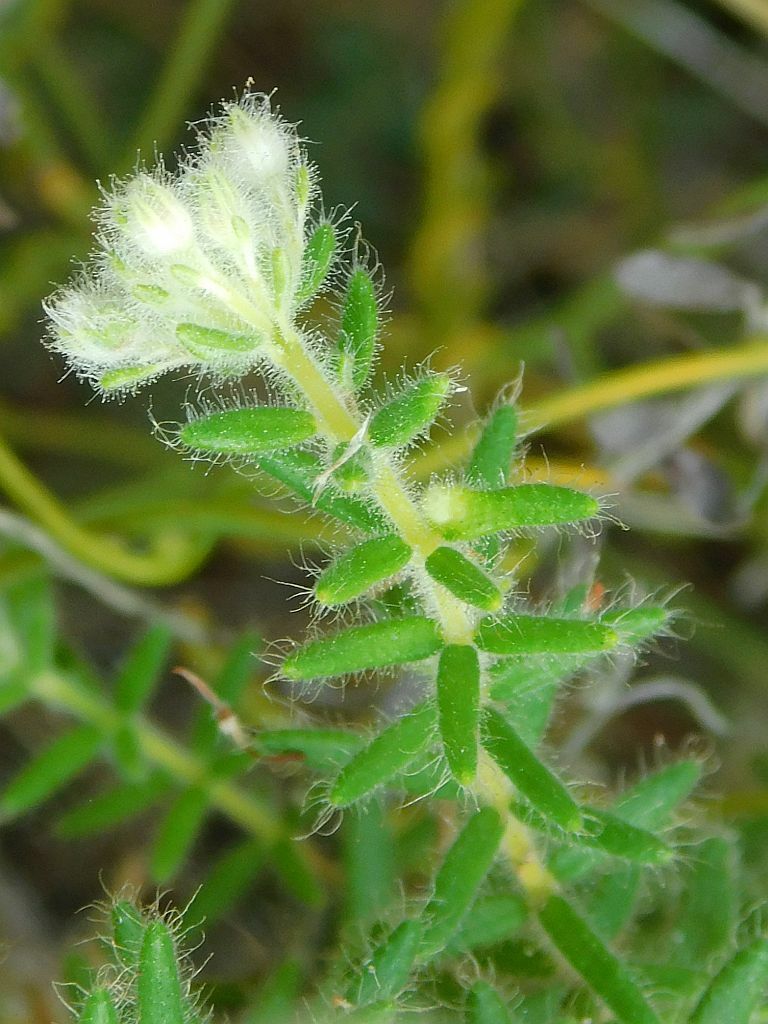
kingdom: Plantae
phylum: Tracheophyta
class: Magnoliopsida
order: Ericales
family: Ericaceae
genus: Erica
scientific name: Erica pannosa
